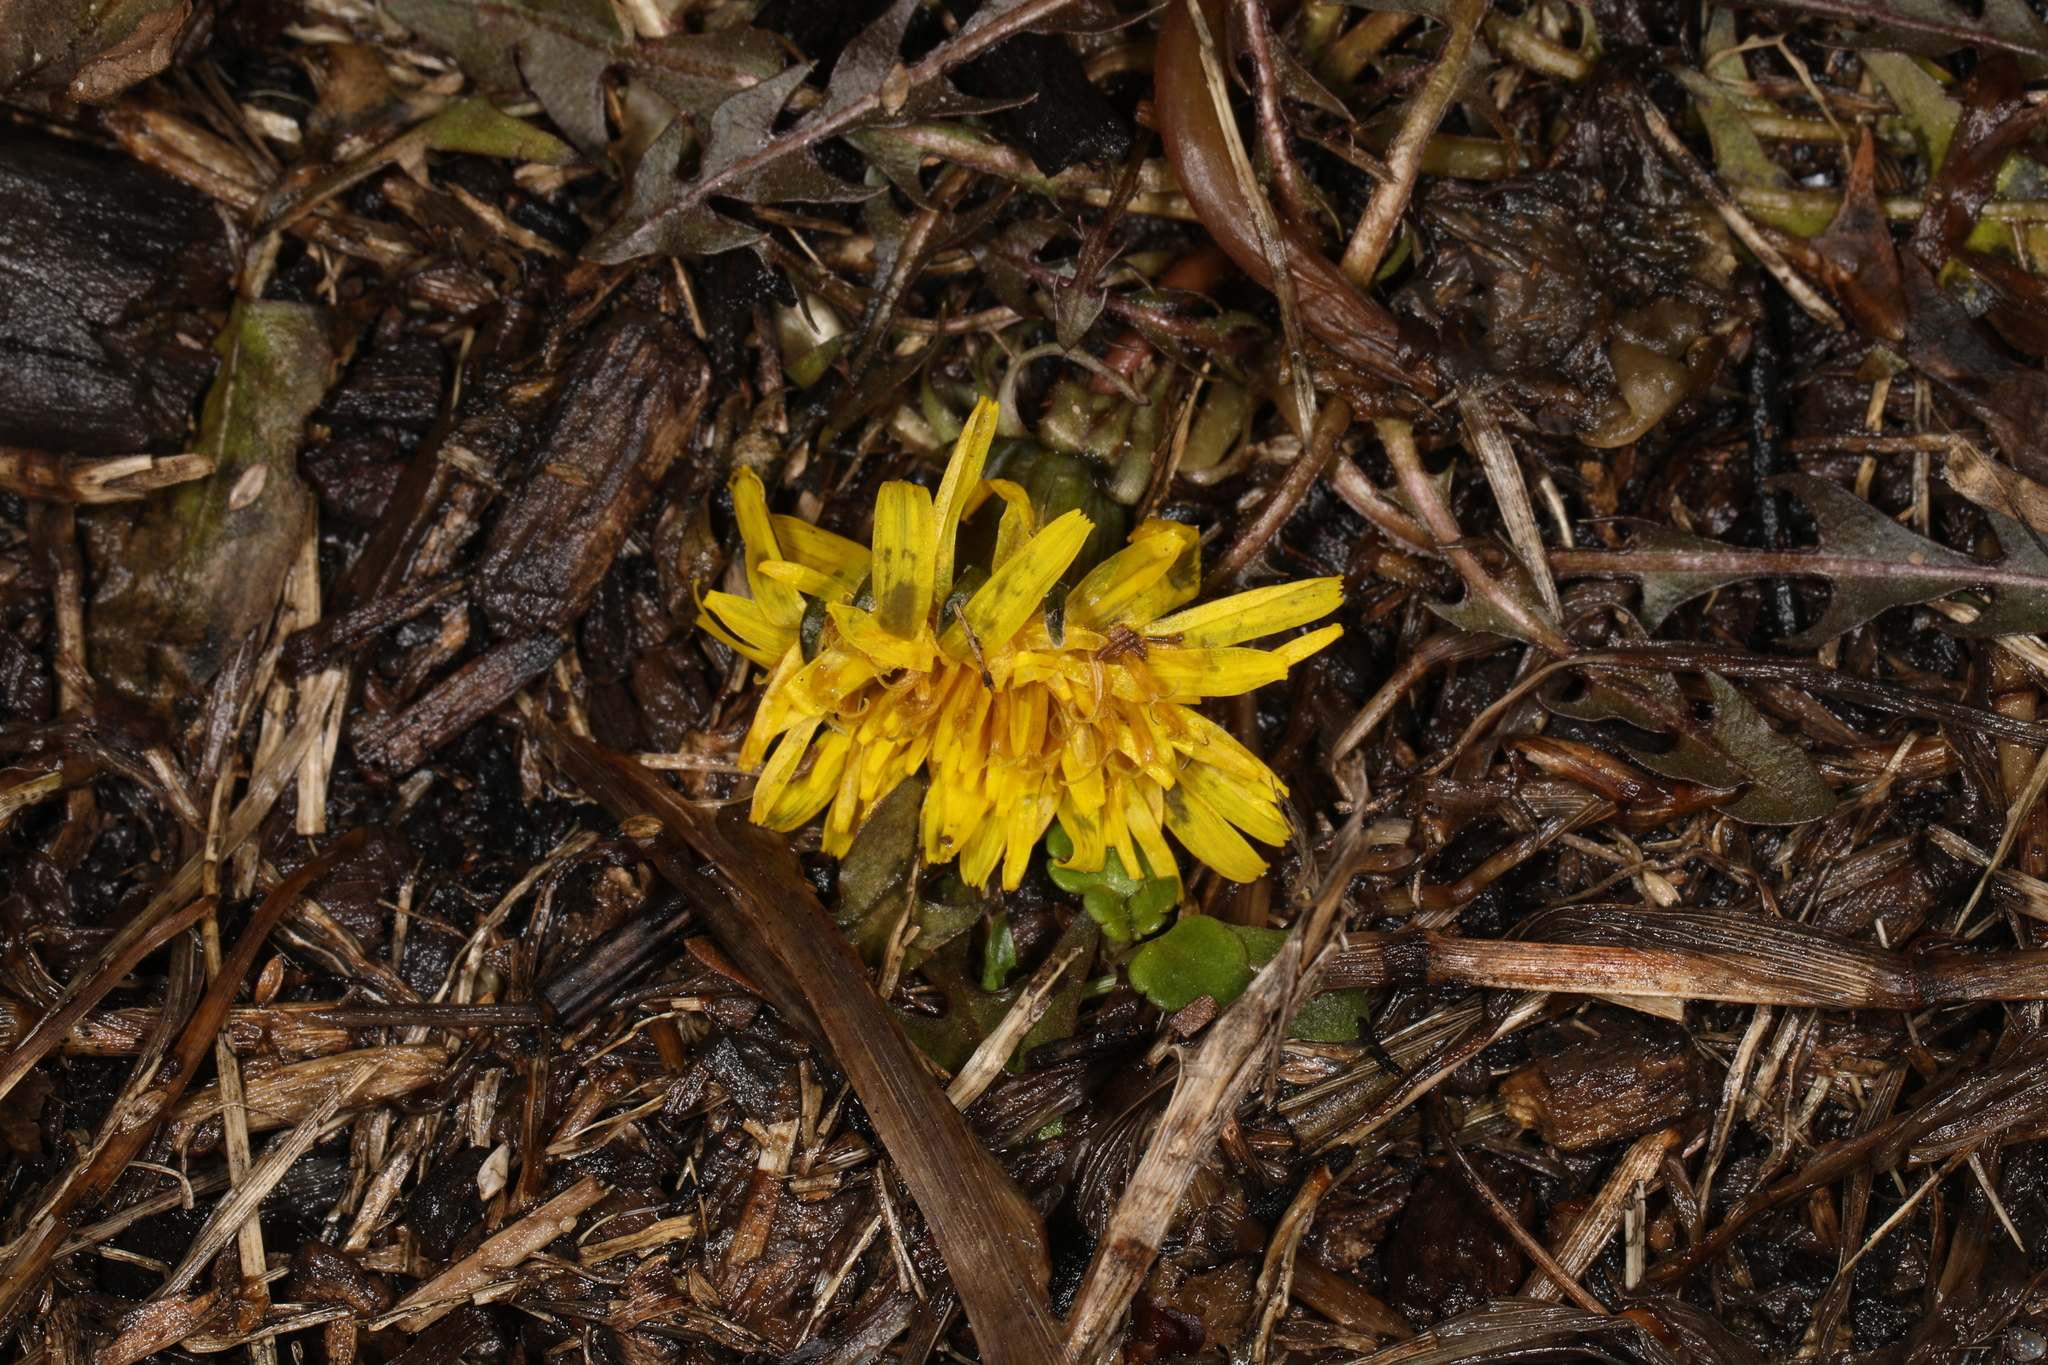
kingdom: Plantae
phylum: Tracheophyta
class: Magnoliopsida
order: Asterales
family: Asteraceae
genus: Taraxacum
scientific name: Taraxacum officinale
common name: Common dandelion
